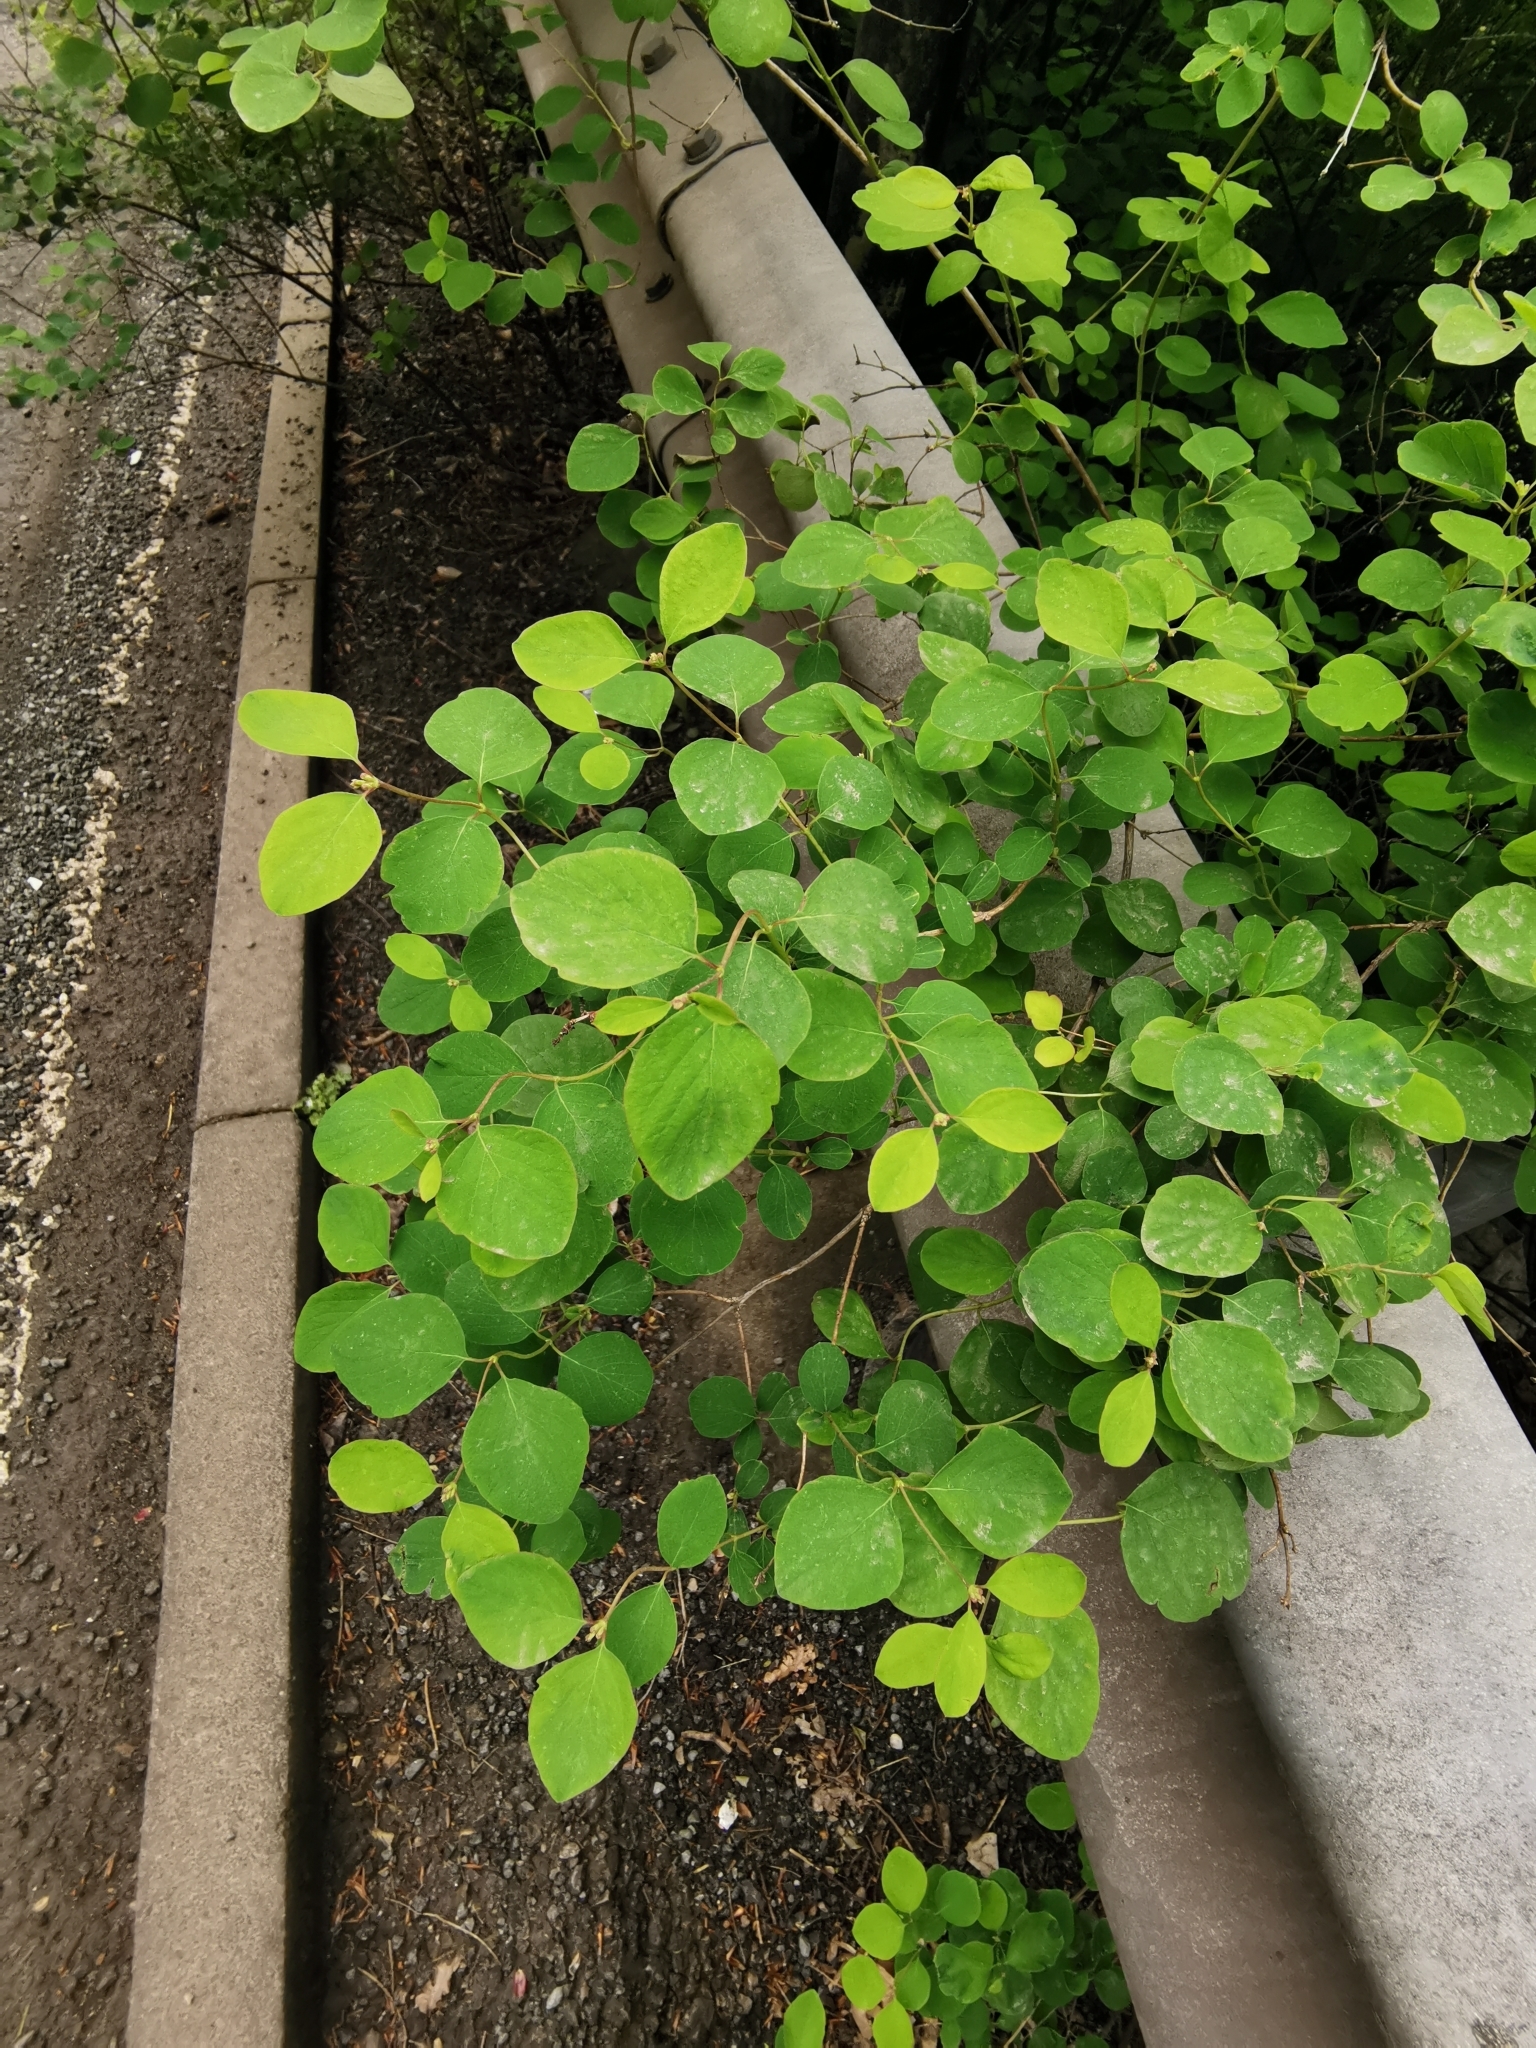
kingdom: Plantae
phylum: Tracheophyta
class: Magnoliopsida
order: Dipsacales
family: Caprifoliaceae
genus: Symphoricarpos
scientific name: Symphoricarpos albus
